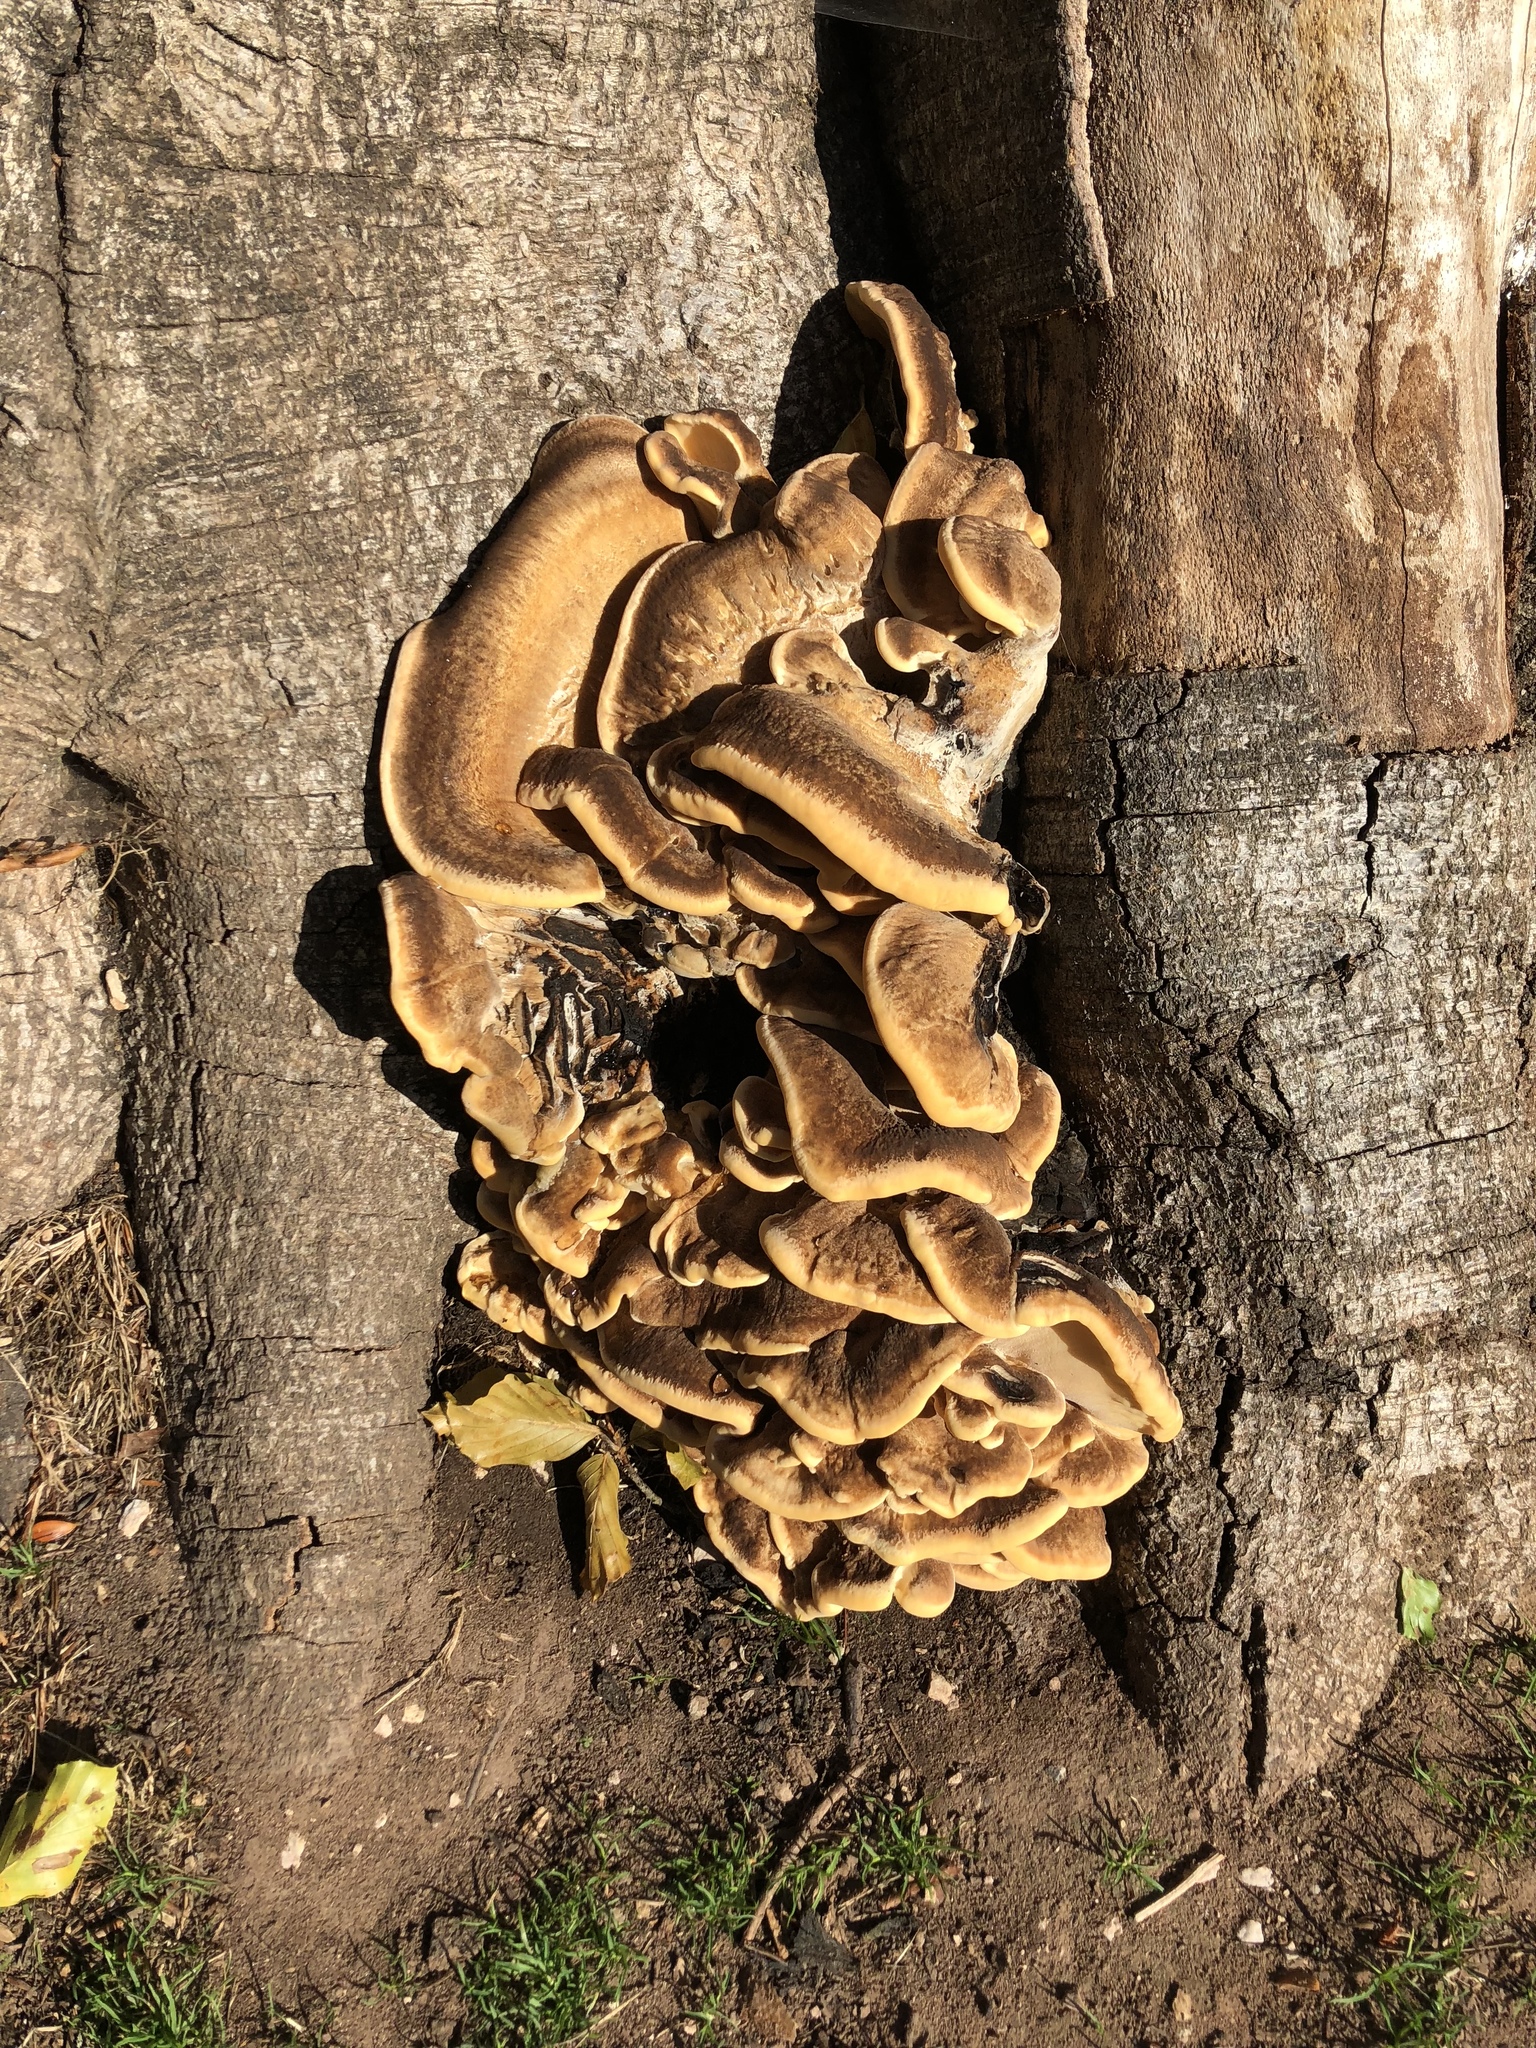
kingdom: Fungi
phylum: Basidiomycota
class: Agaricomycetes
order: Polyporales
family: Meripilaceae
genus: Meripilus
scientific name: Meripilus giganteus
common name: Giant polypore
